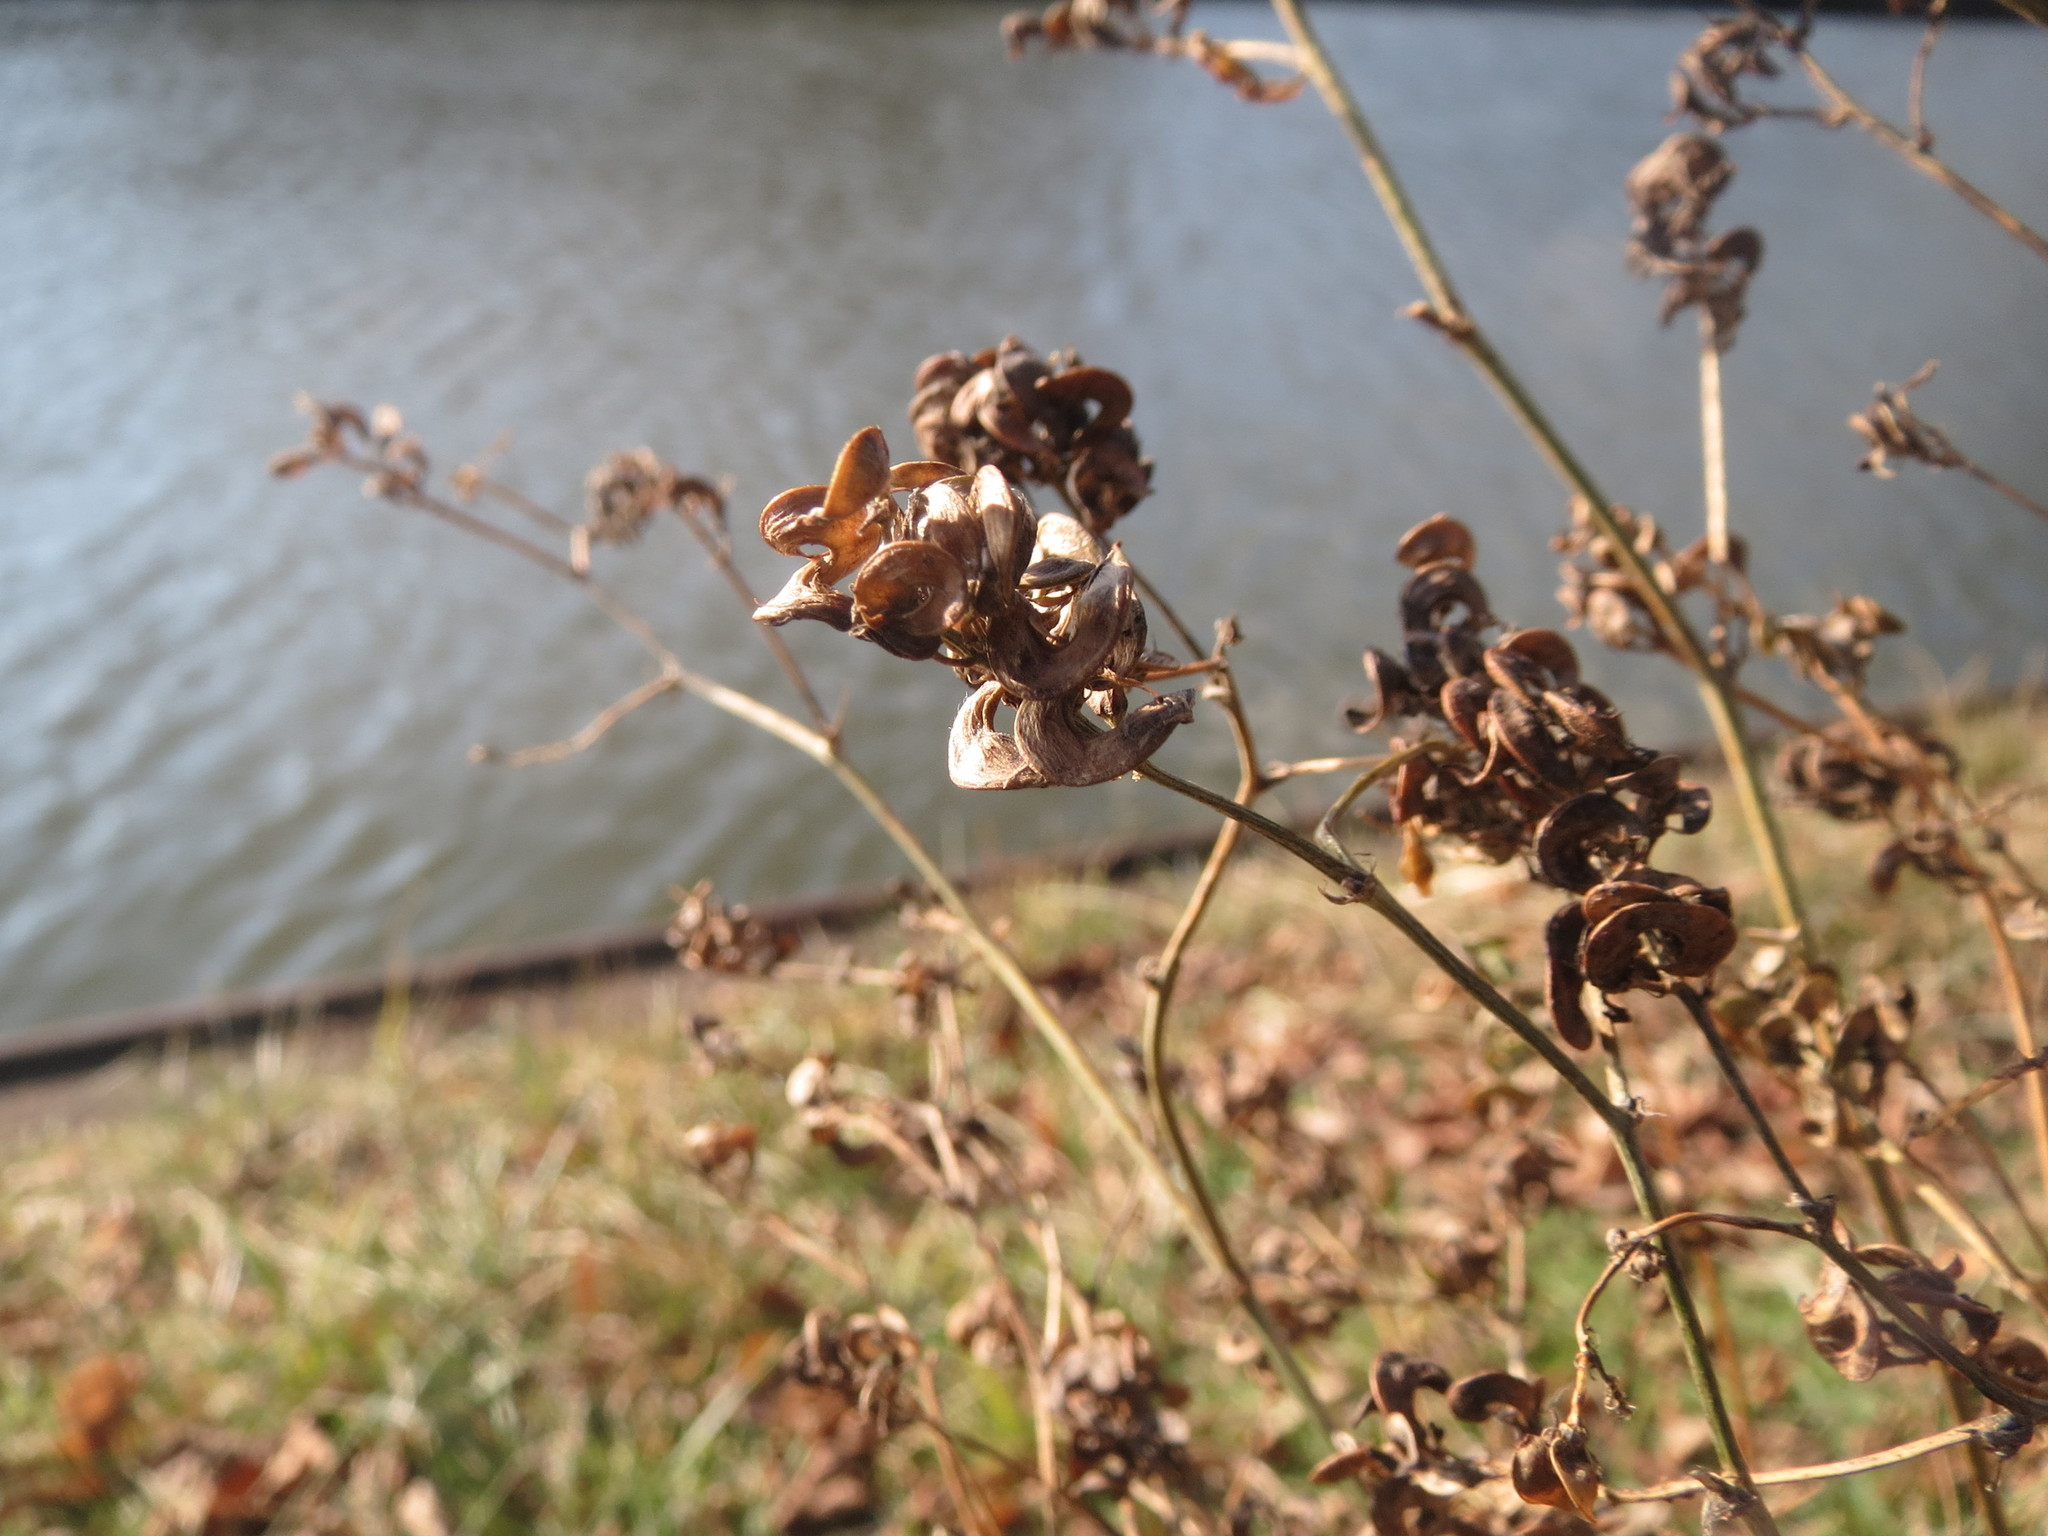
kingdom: Plantae
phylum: Tracheophyta
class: Magnoliopsida
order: Fabales
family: Fabaceae
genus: Medicago
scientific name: Medicago
